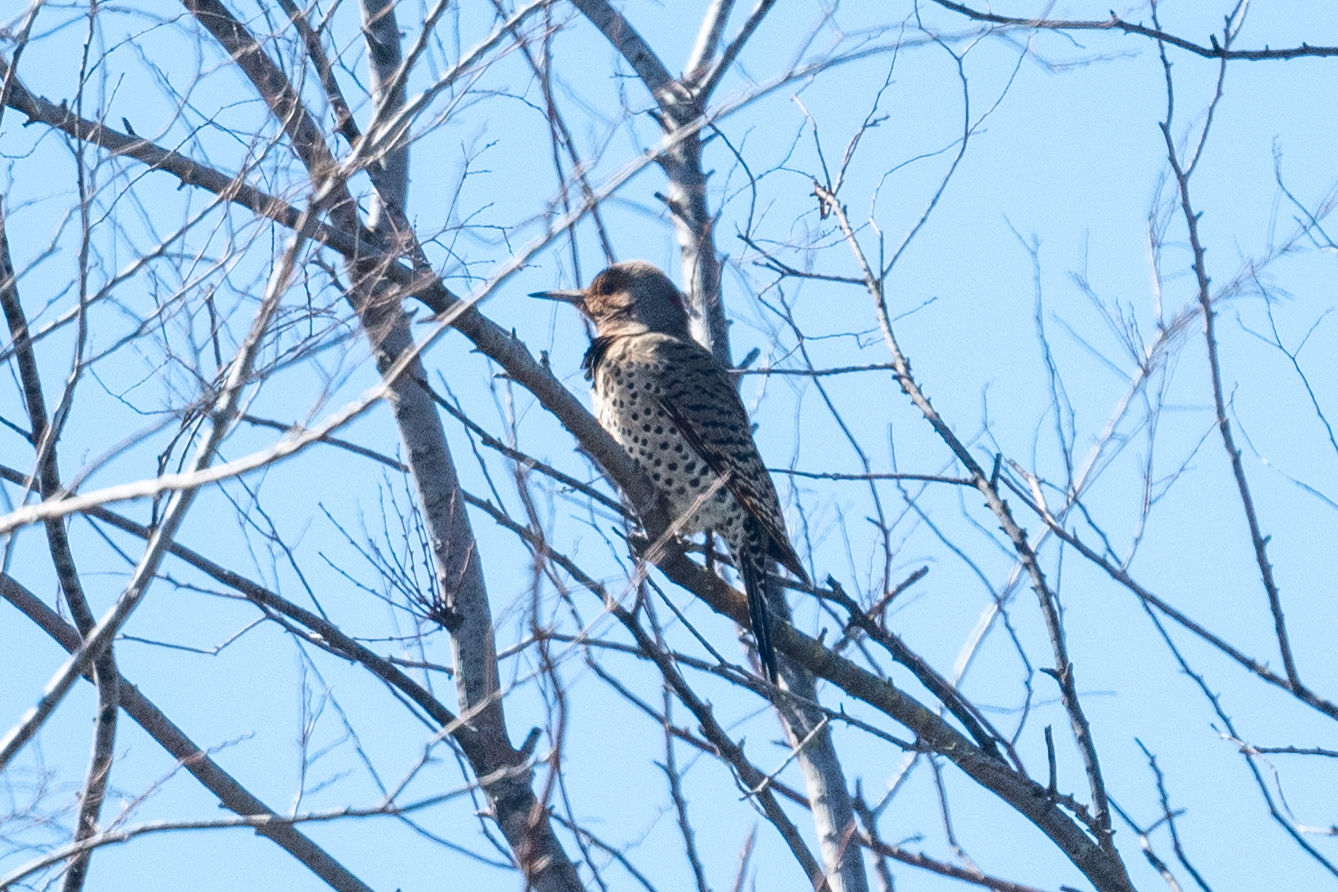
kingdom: Animalia
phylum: Chordata
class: Aves
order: Piciformes
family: Picidae
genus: Colaptes
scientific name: Colaptes auratus
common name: Northern flicker
